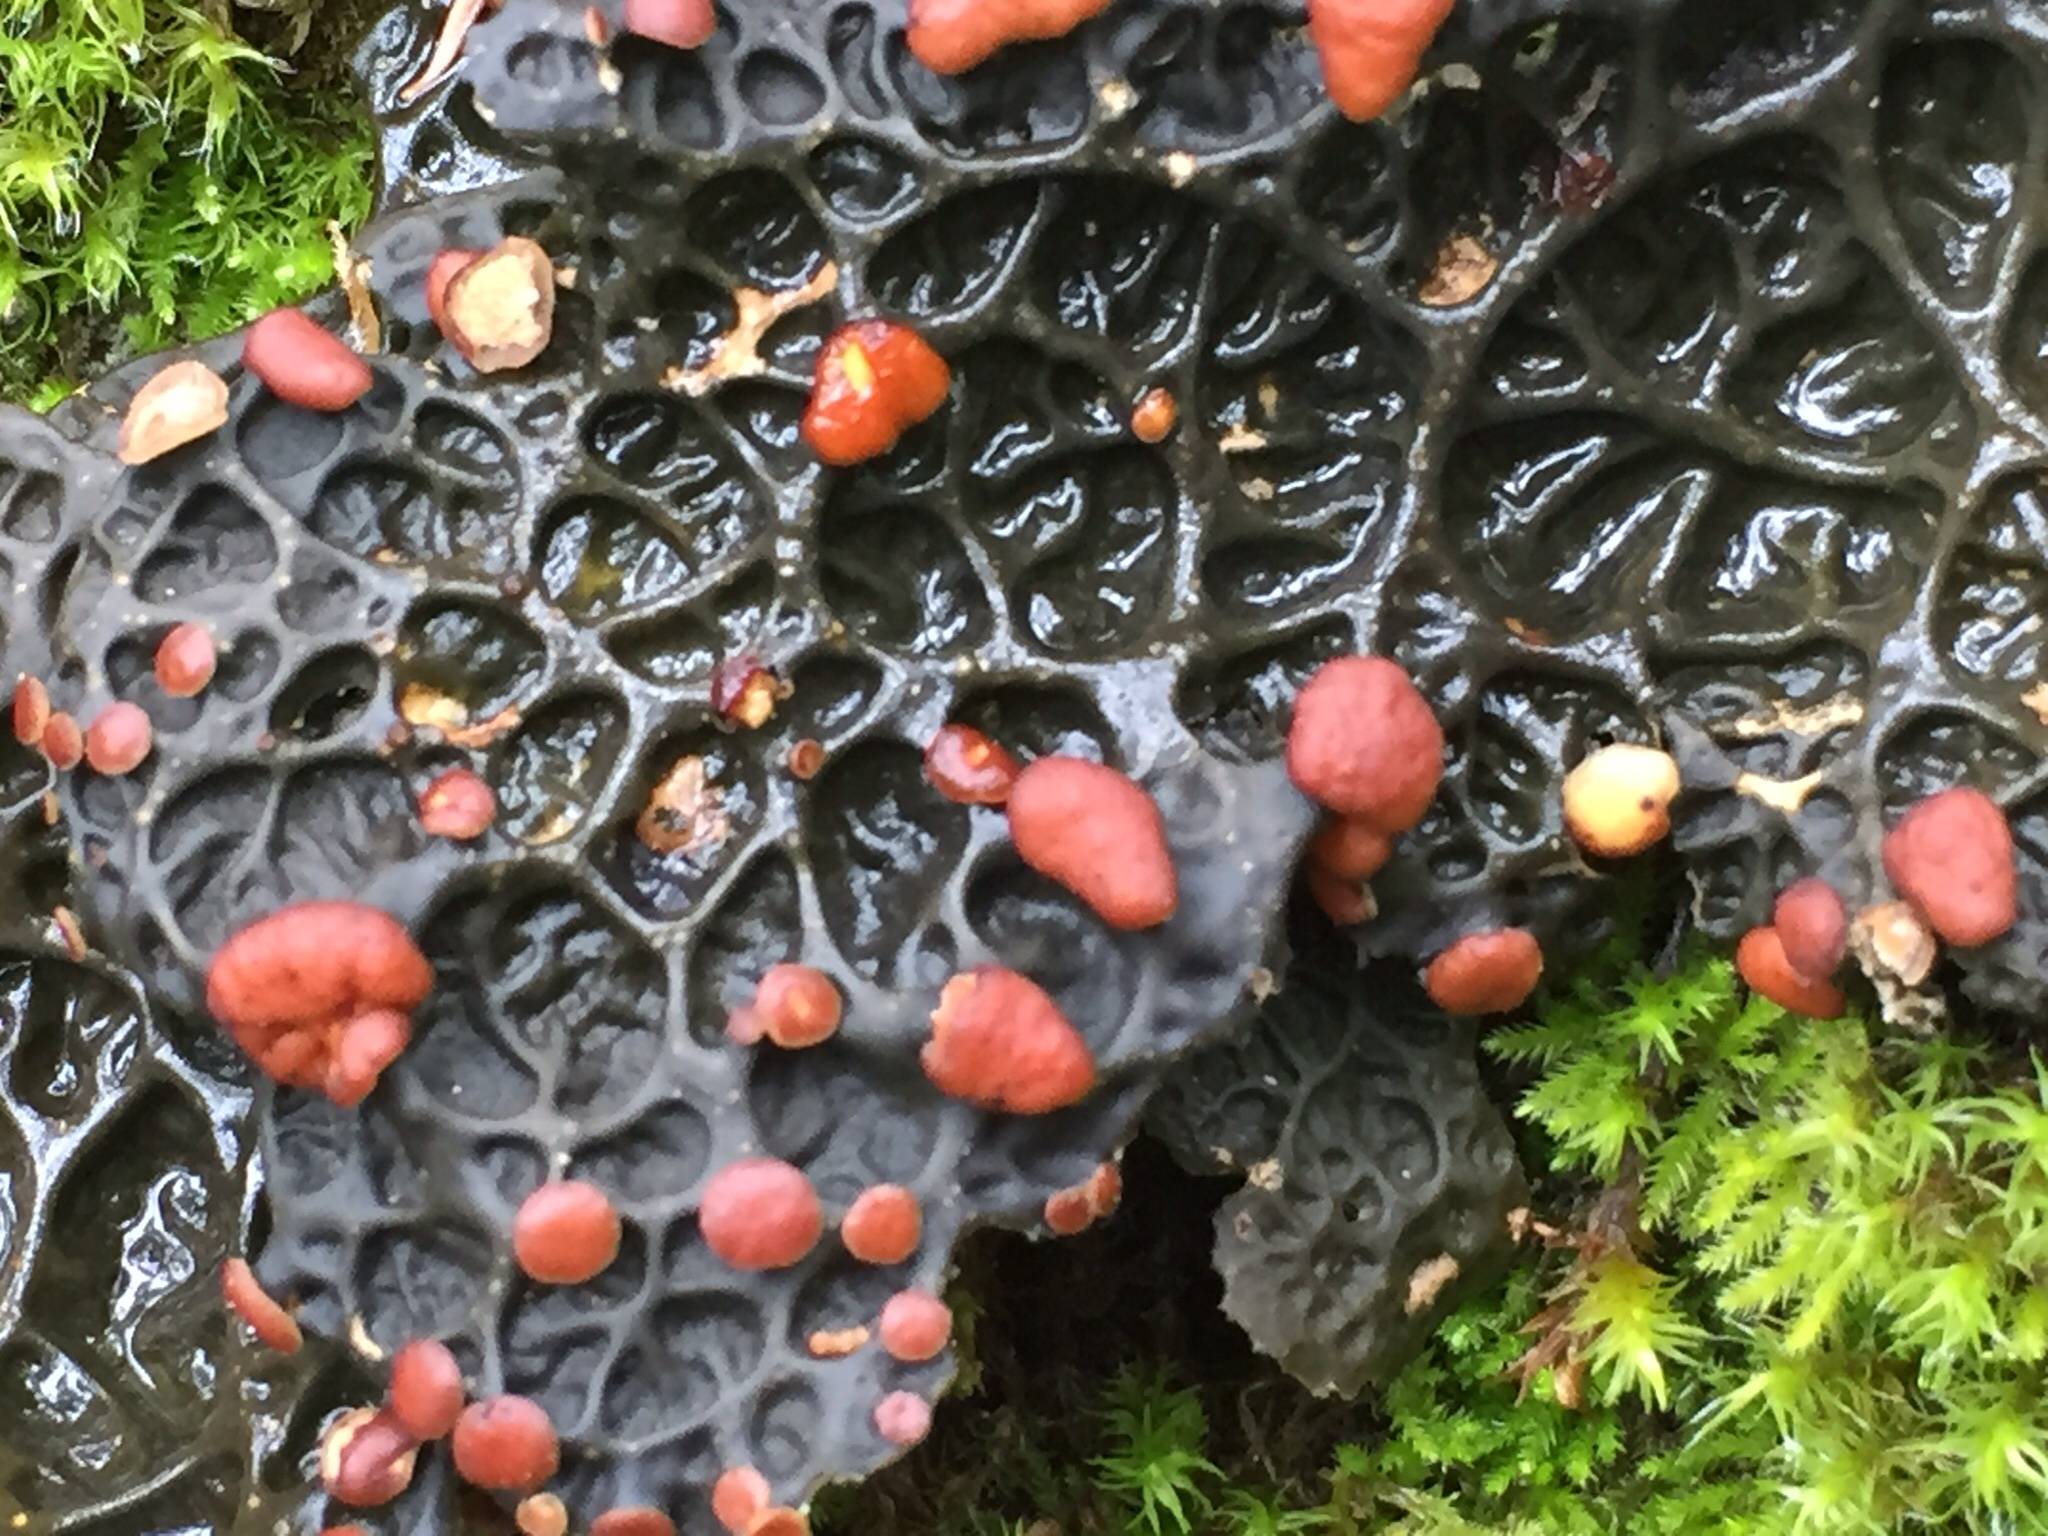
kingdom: Fungi
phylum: Ascomycota
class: Lecanoromycetes
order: Peltigerales
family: Lobariaceae
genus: Lobaria
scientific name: Lobaria anthraspis
